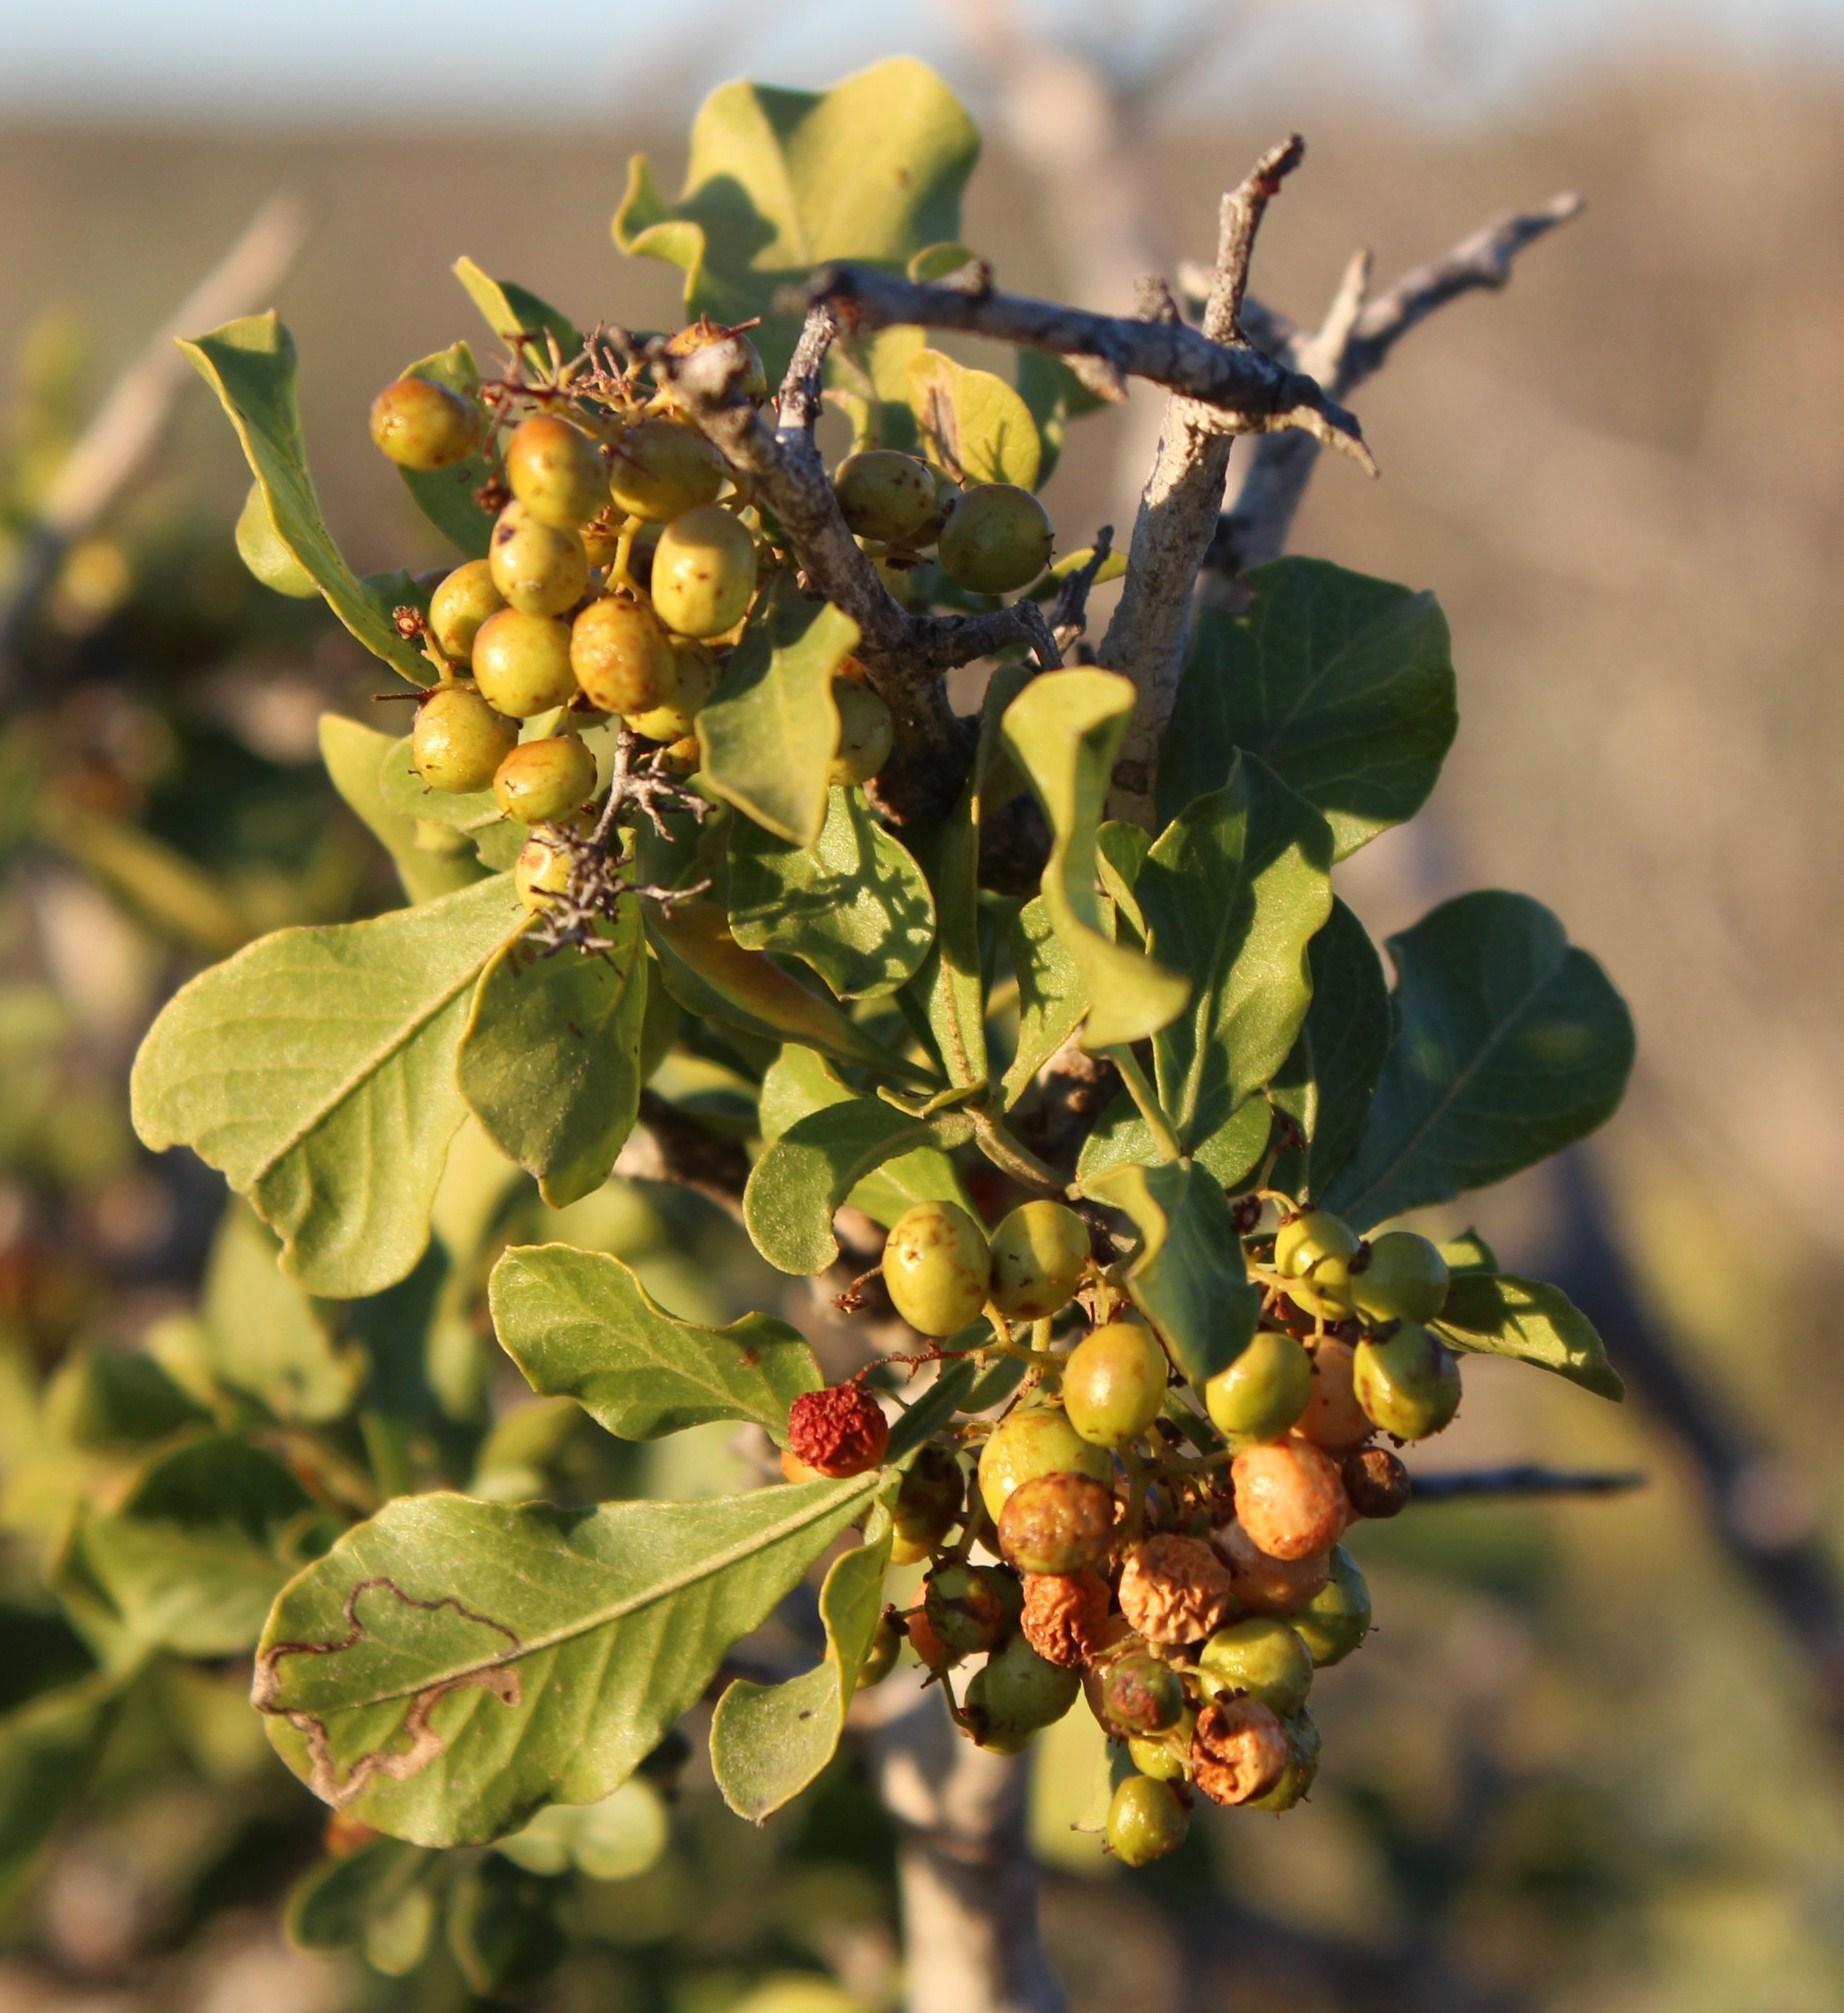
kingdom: Plantae
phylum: Tracheophyta
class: Magnoliopsida
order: Sapindales
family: Anacardiaceae
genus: Searsia
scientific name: Searsia undulata
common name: Namaqua kunibush
